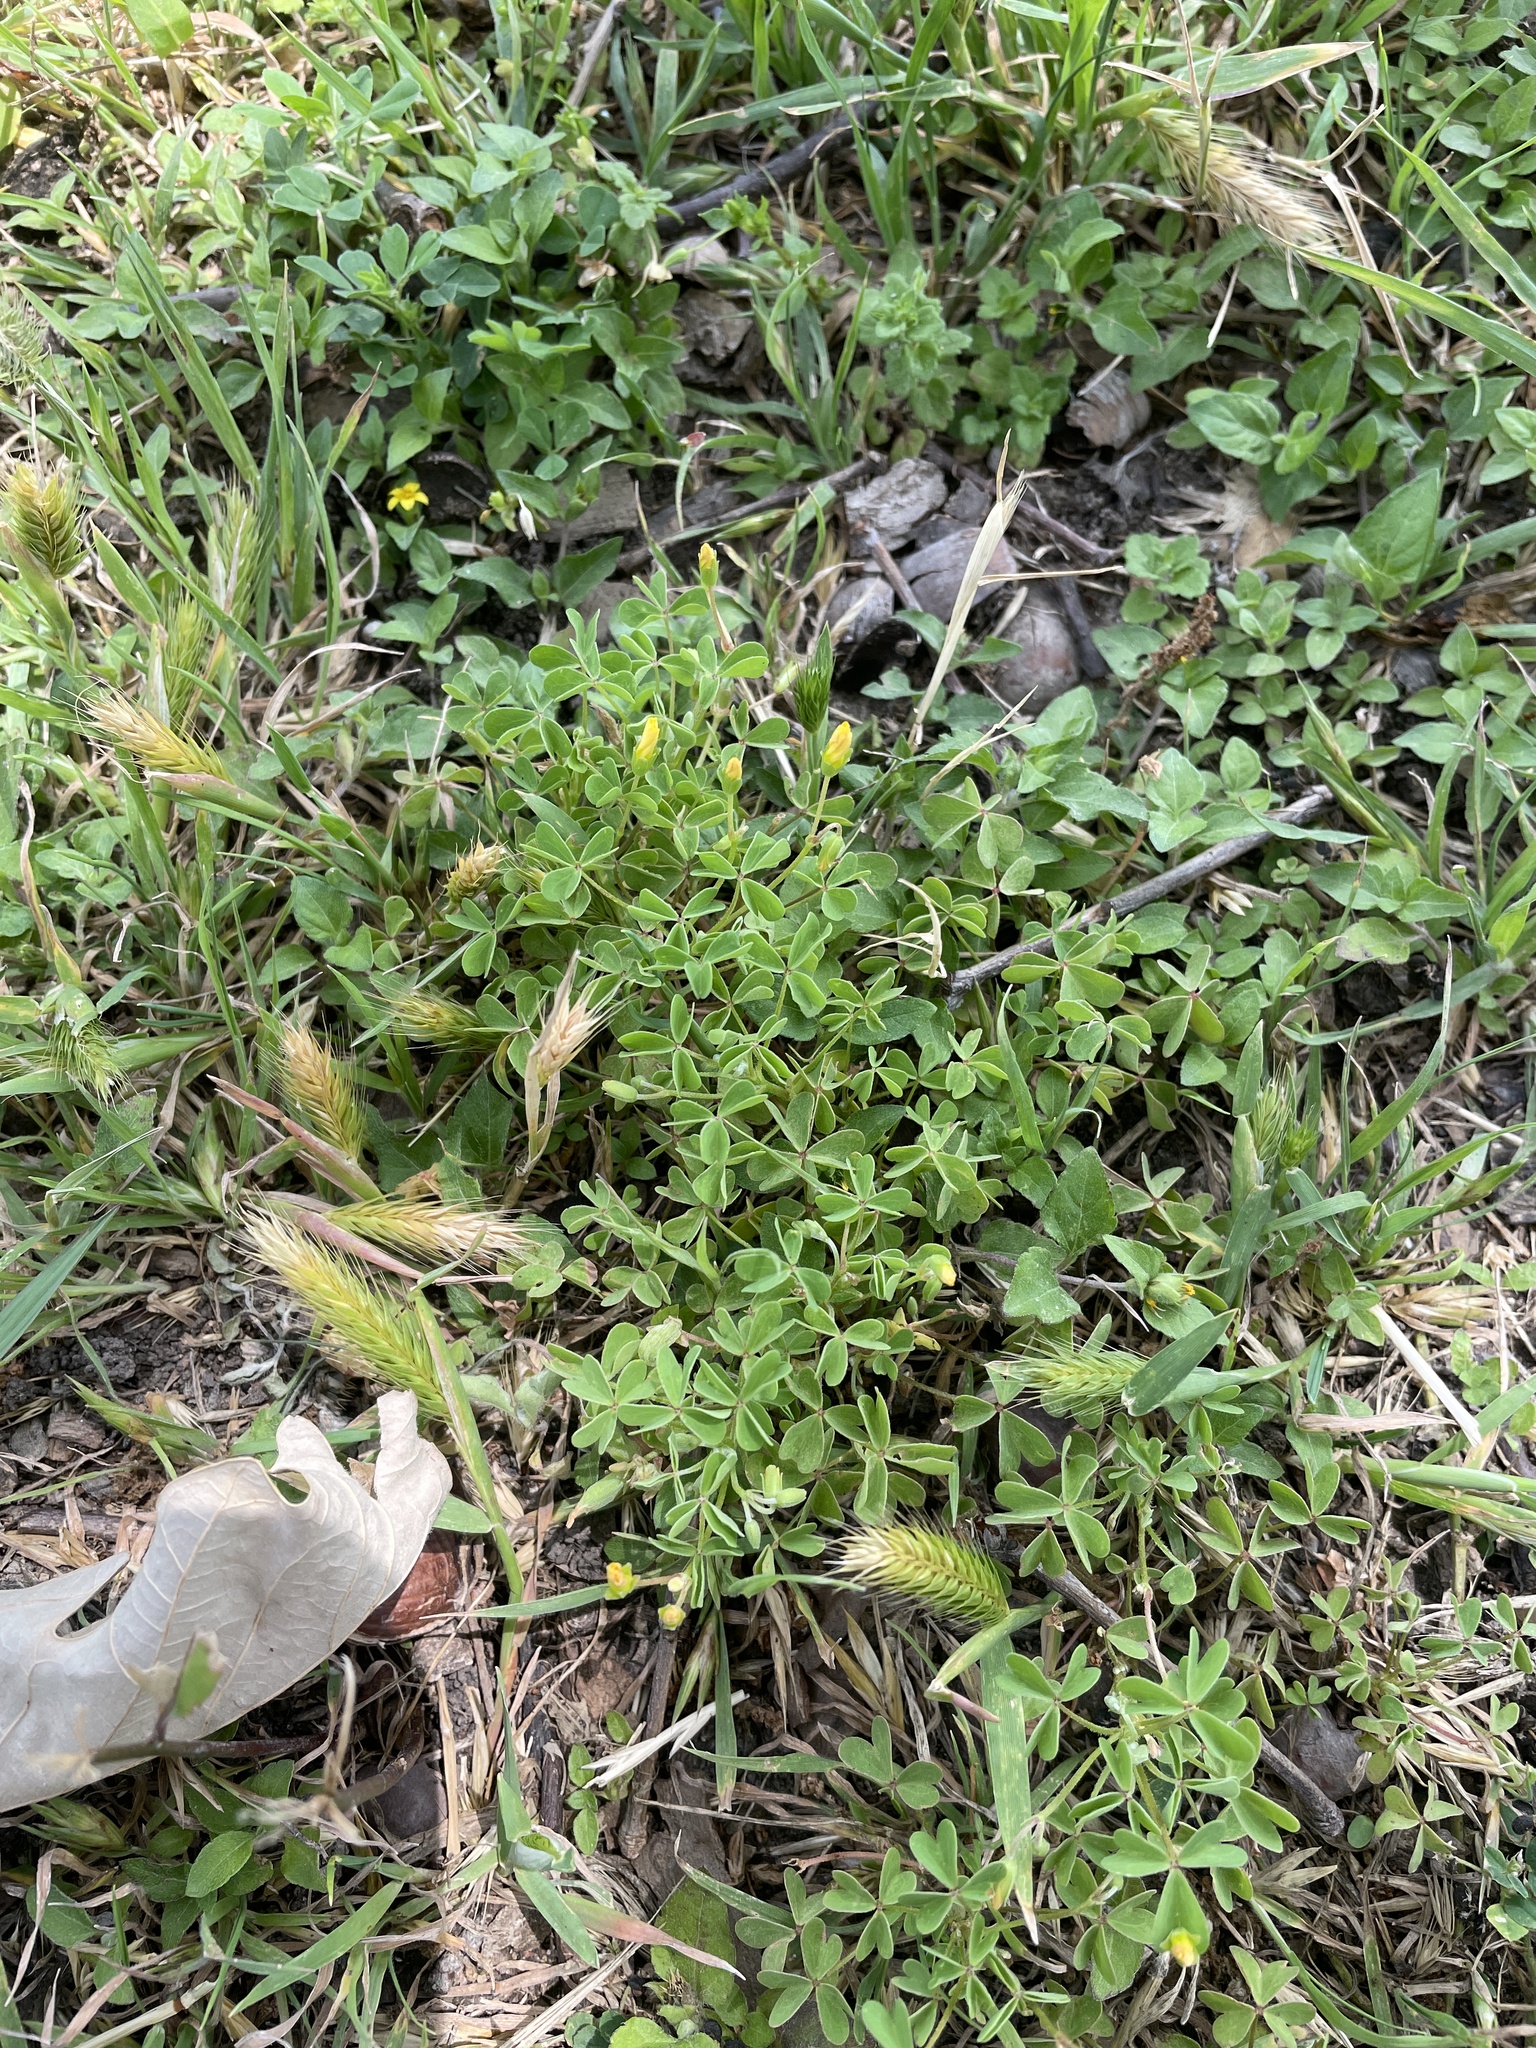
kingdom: Plantae
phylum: Tracheophyta
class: Magnoliopsida
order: Oxalidales
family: Oxalidaceae
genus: Oxalis
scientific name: Oxalis dillenii
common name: Sussex yellow-sorrel
